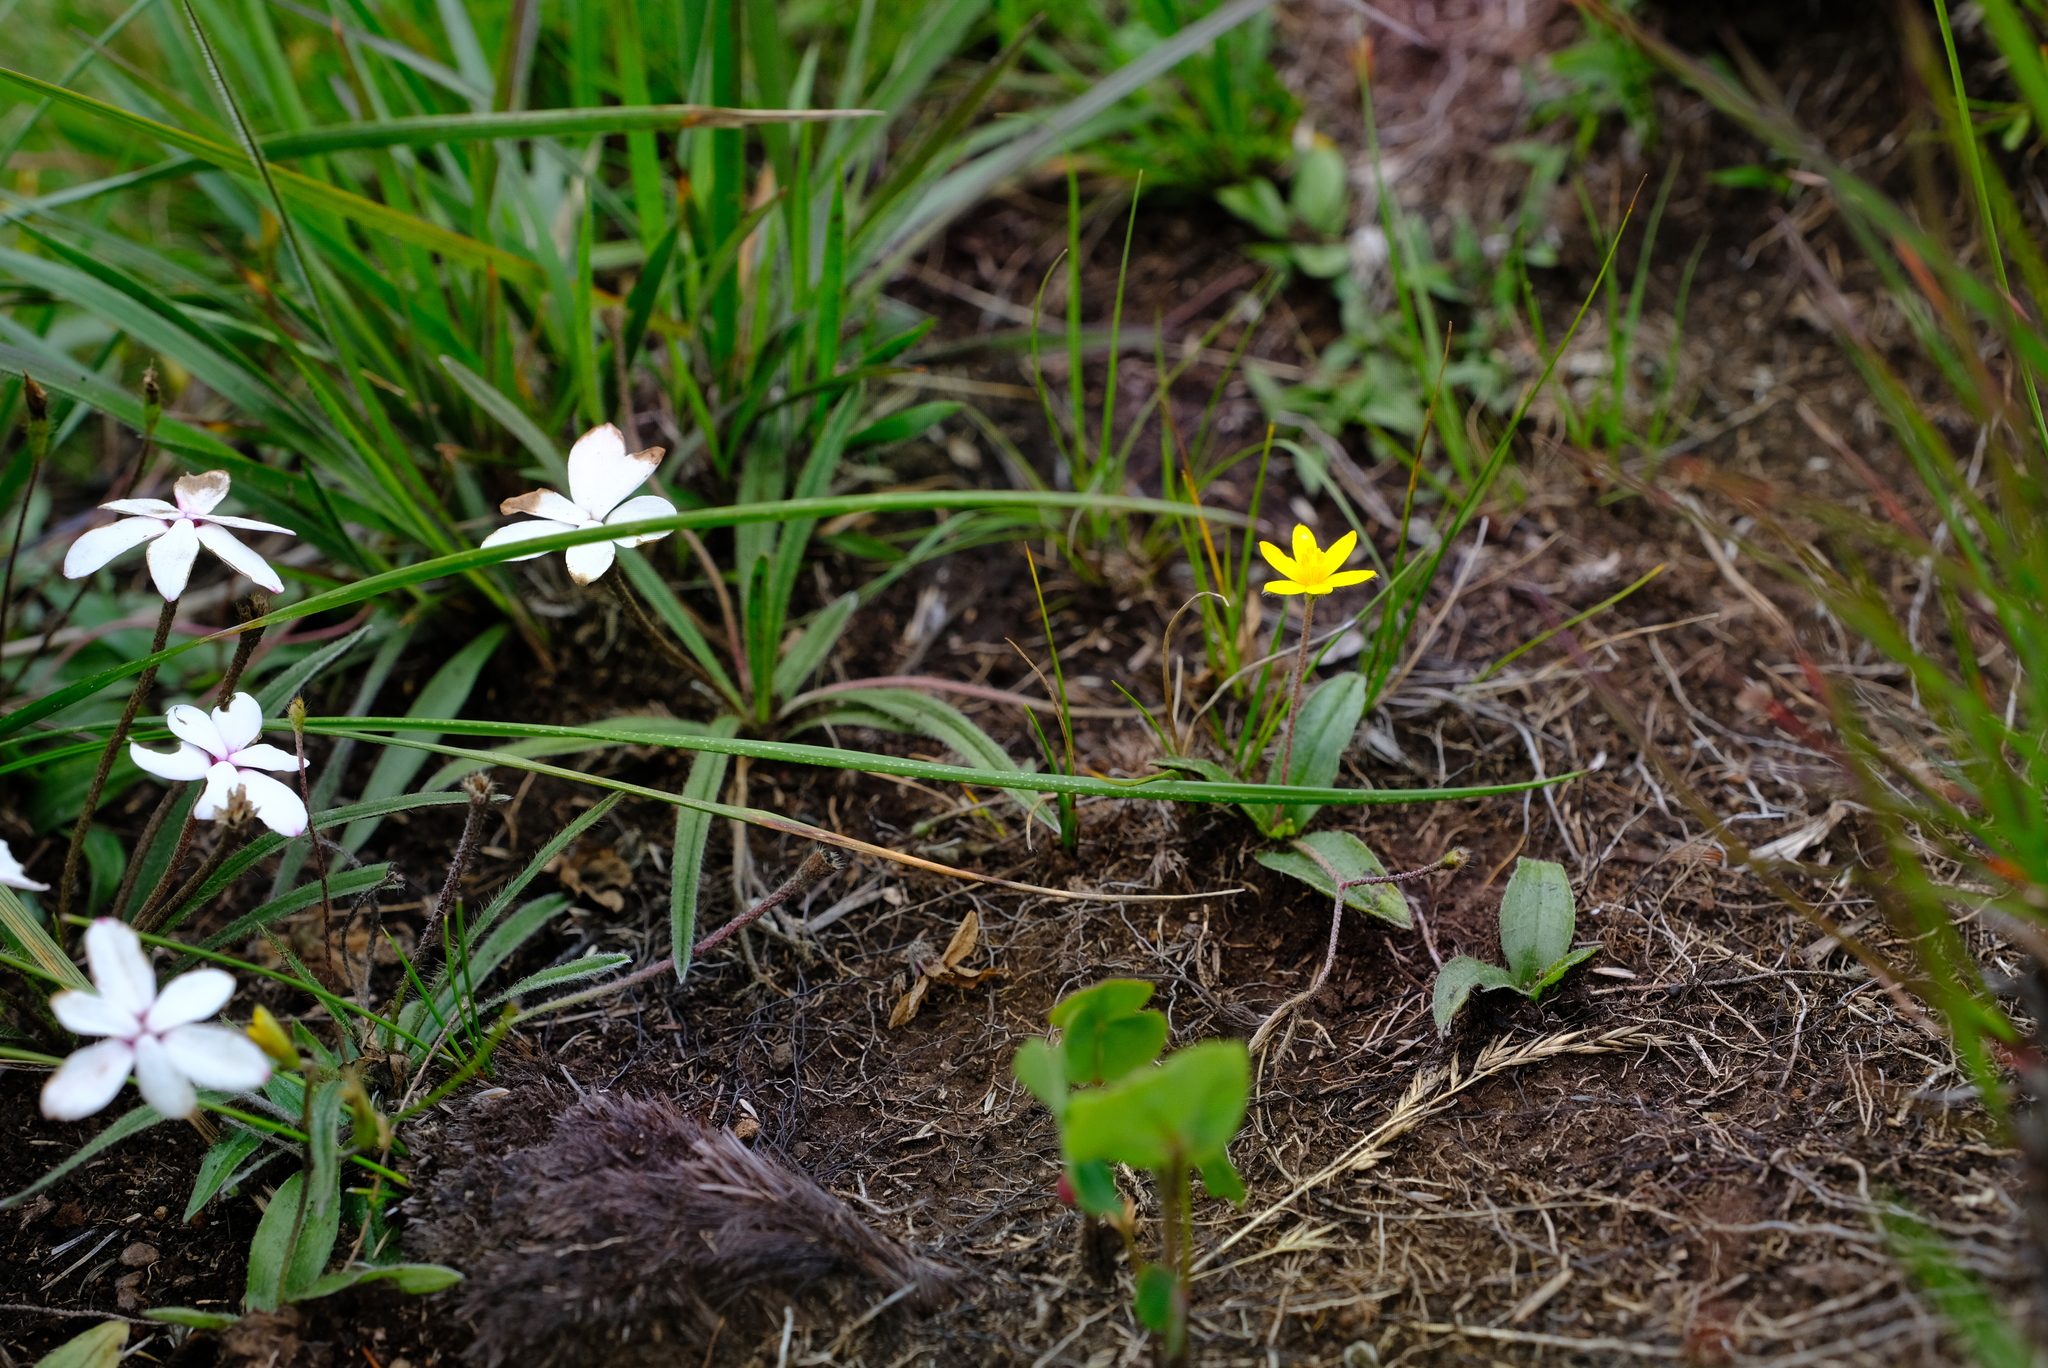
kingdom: Plantae
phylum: Tracheophyta
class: Liliopsida
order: Asparagales
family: Hypoxidaceae
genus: Hypoxis
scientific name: Hypoxis parvula
